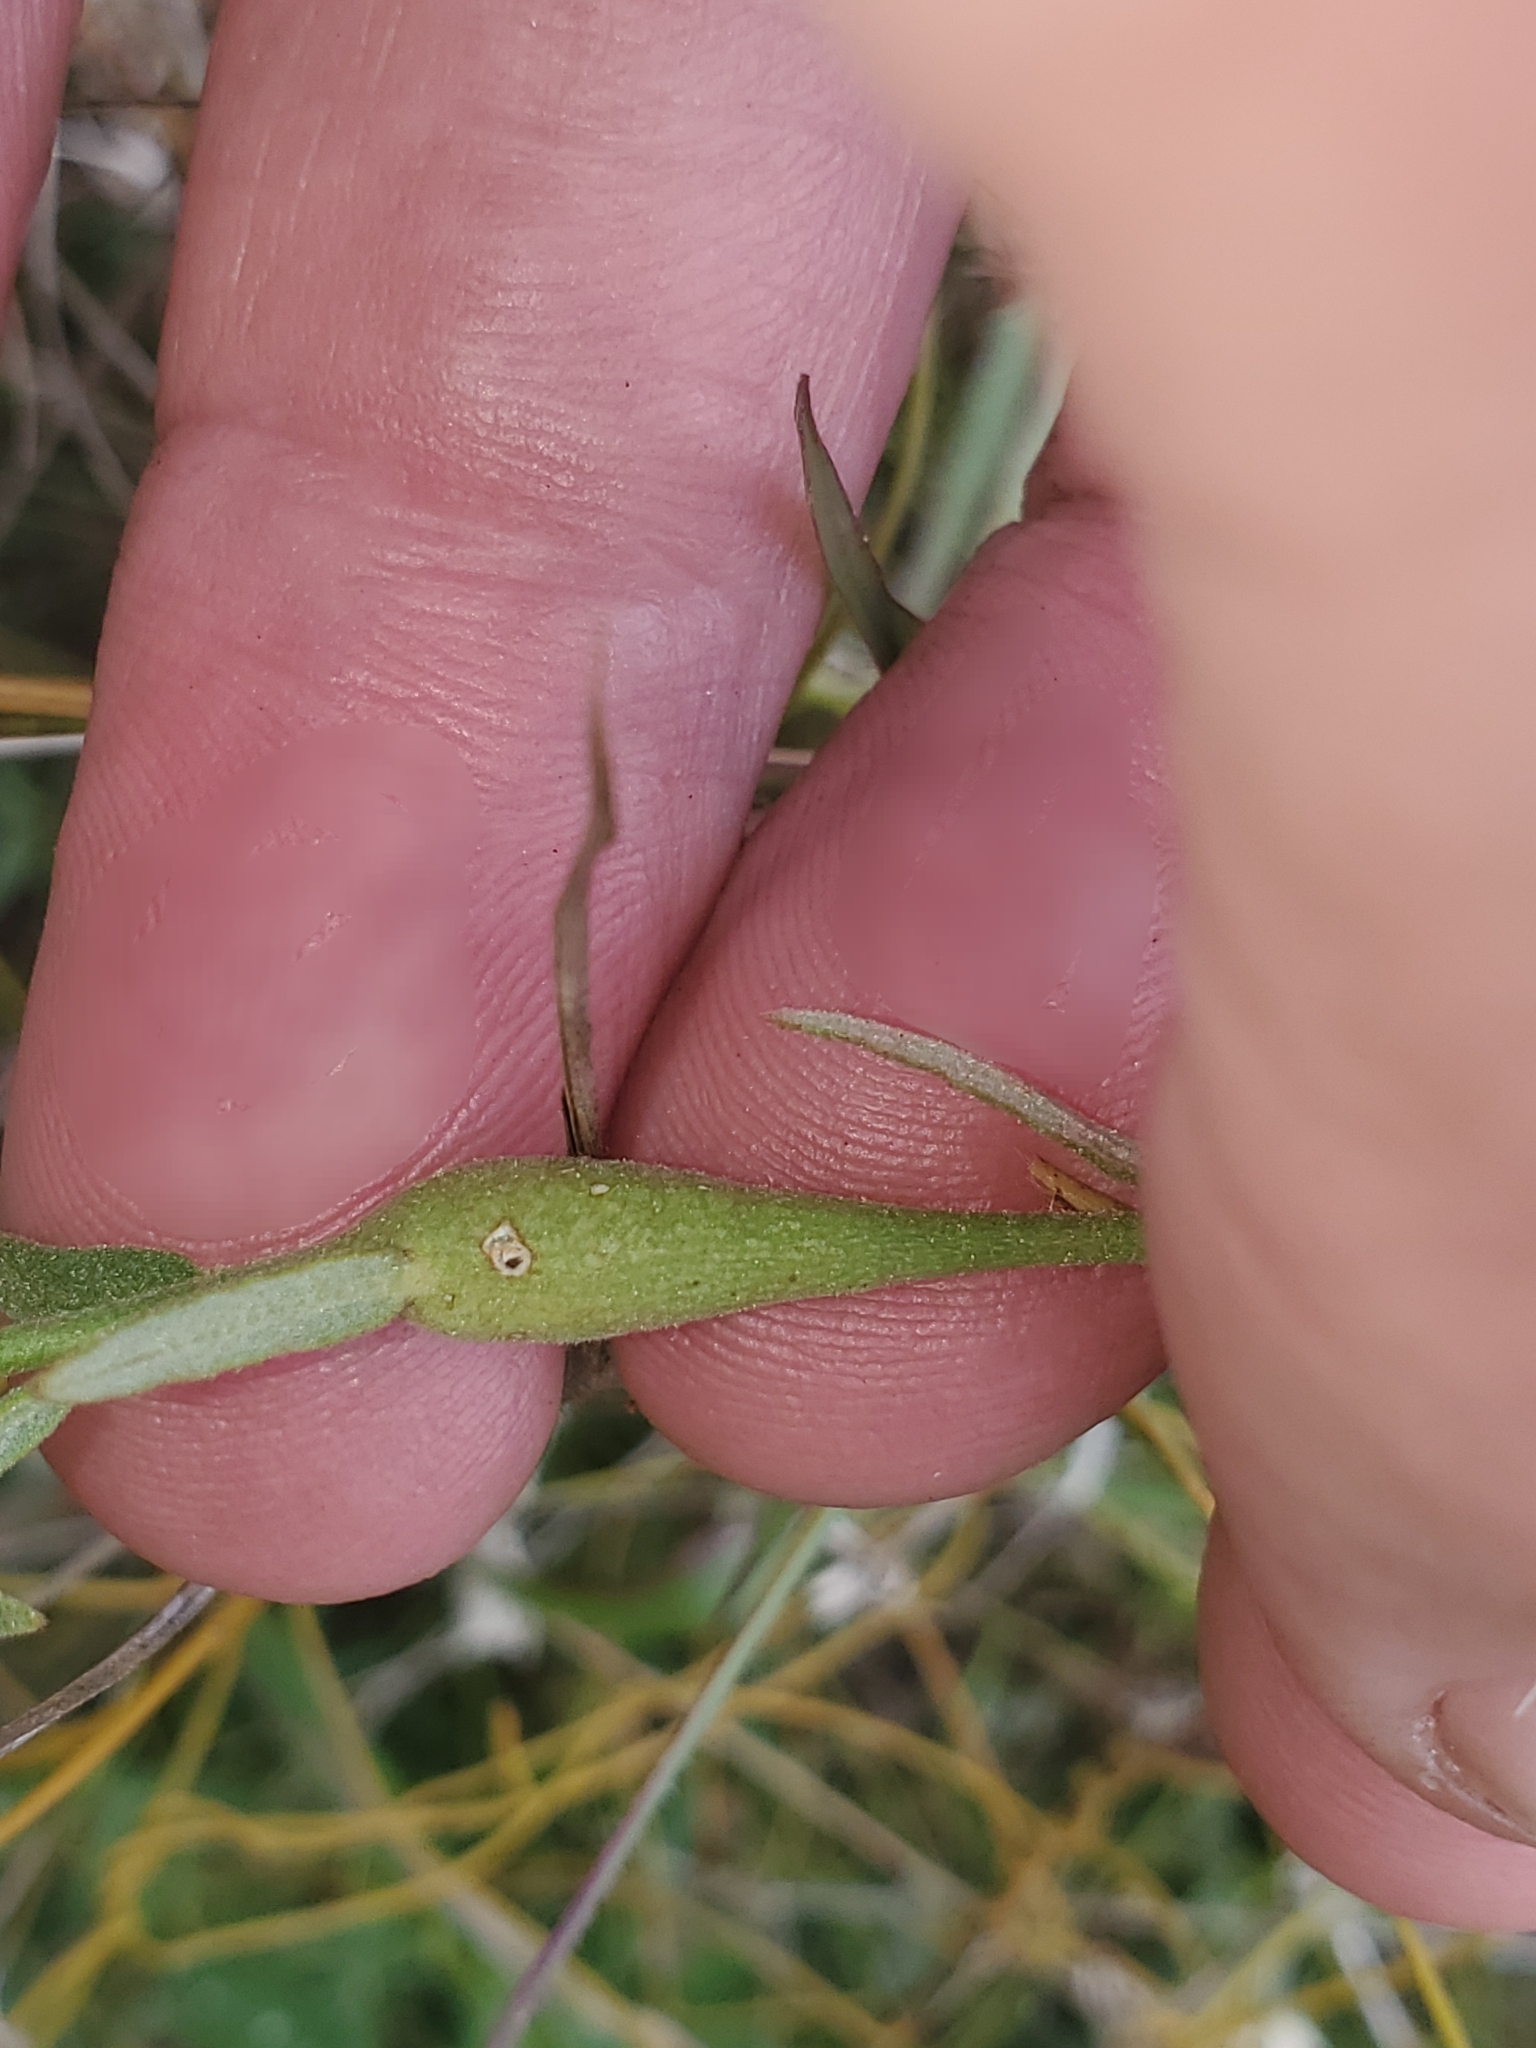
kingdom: Plantae
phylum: Tracheophyta
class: Magnoliopsida
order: Malpighiales
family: Turneraceae
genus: Piriqueta
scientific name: Piriqueta cistoides
